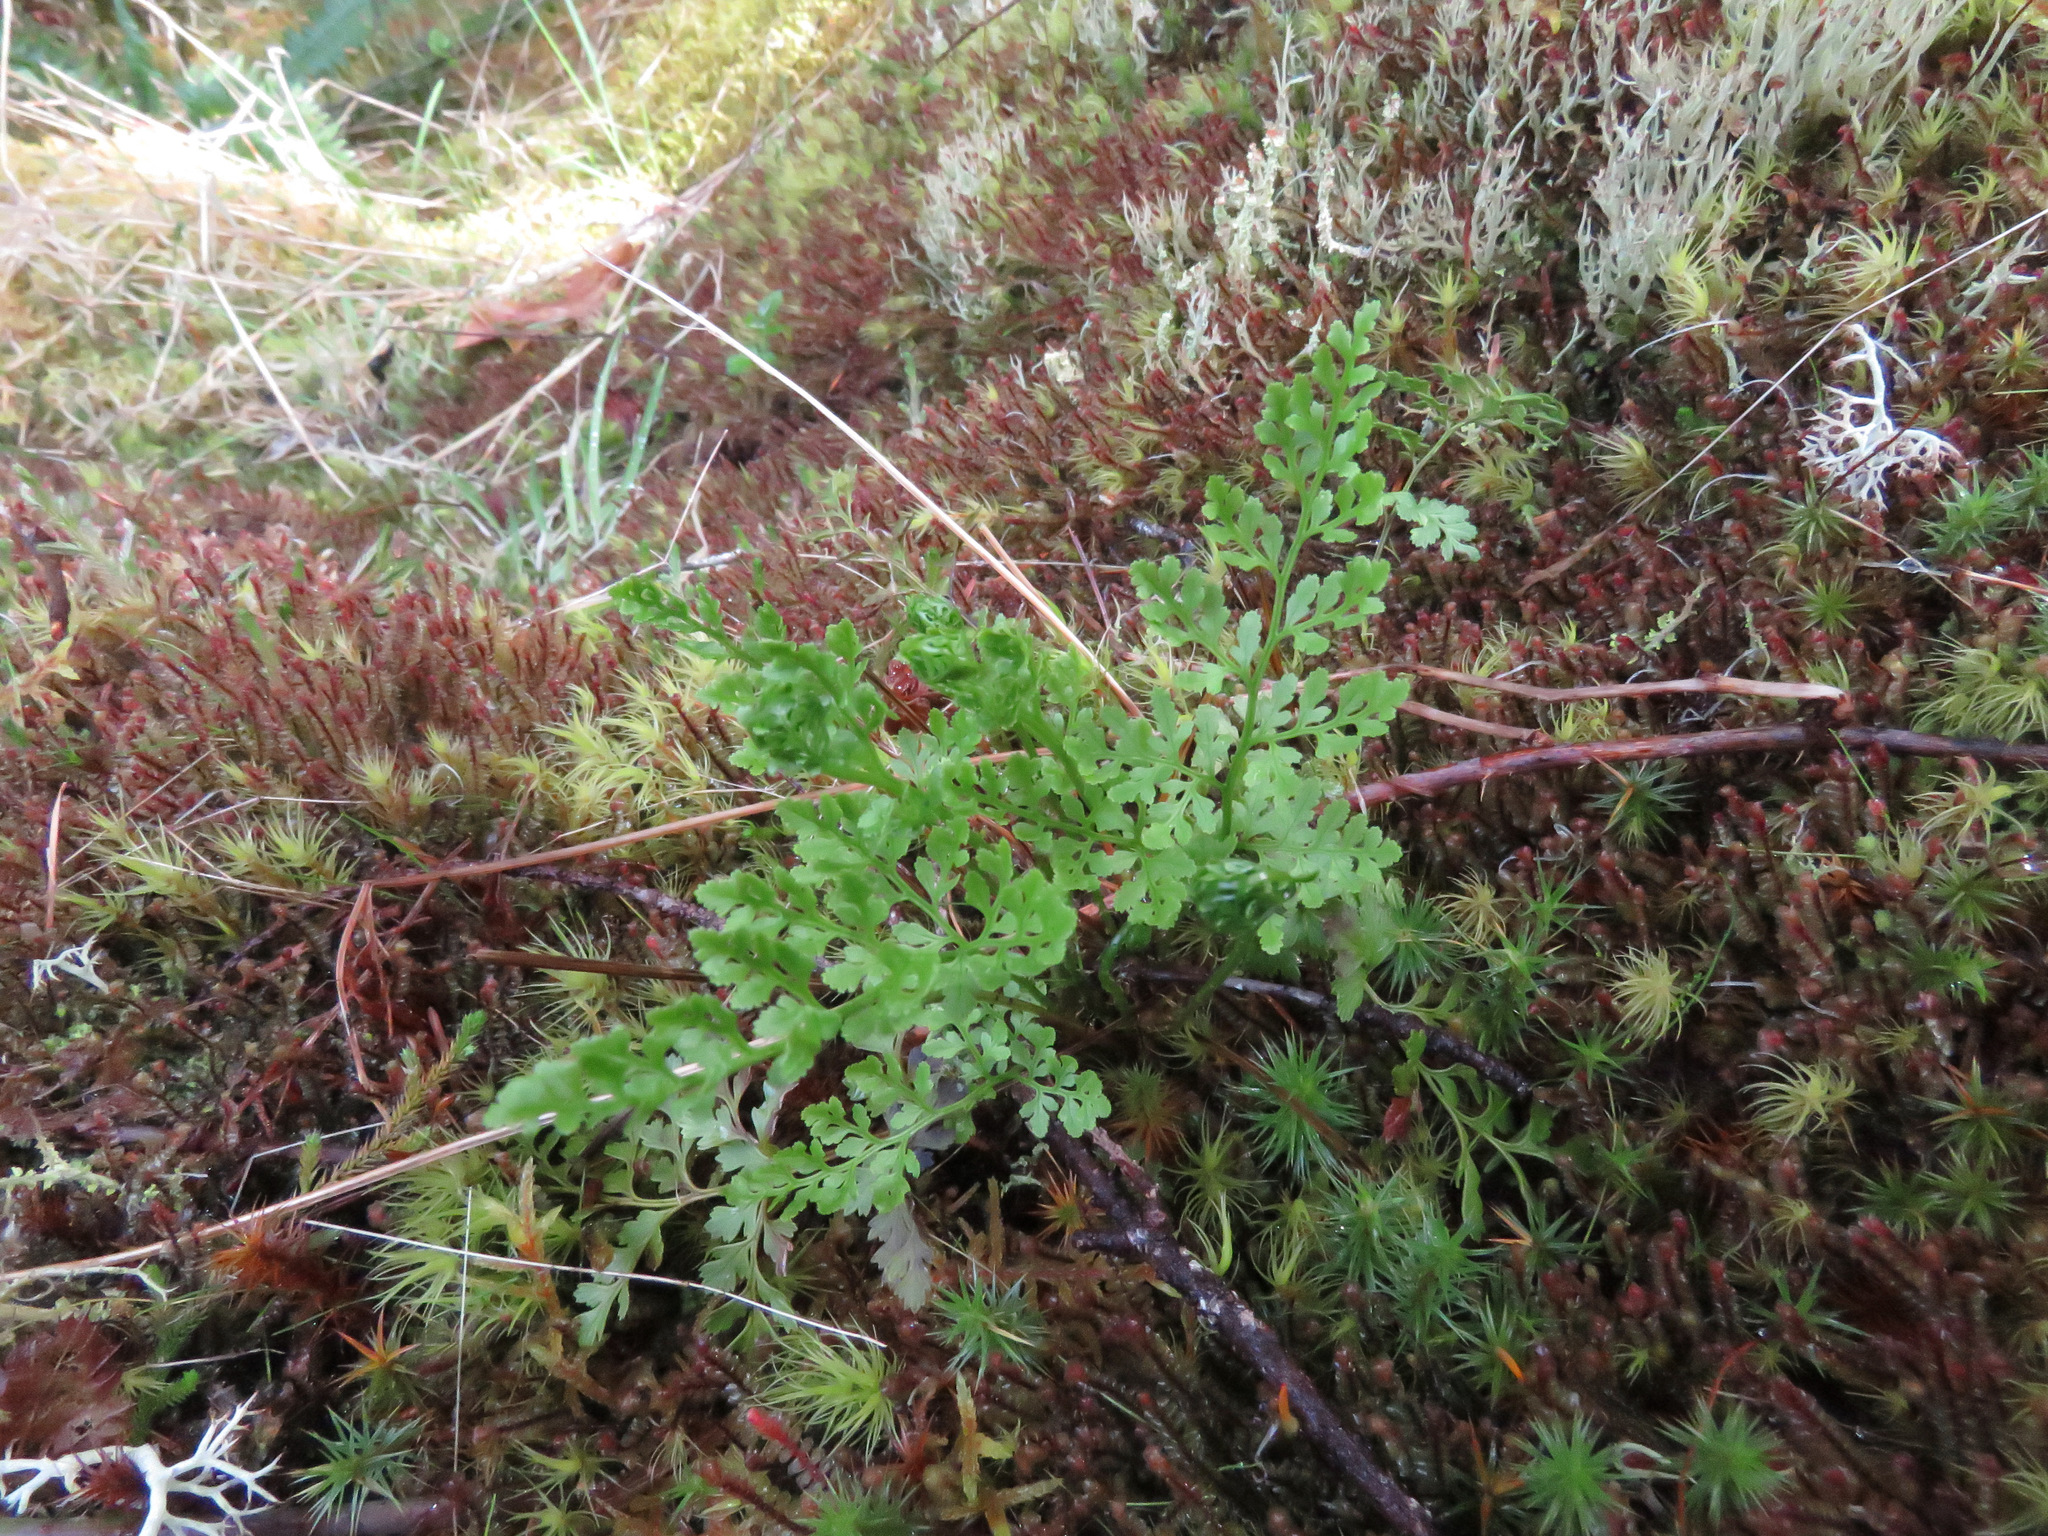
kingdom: Plantae
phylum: Tracheophyta
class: Polypodiopsida
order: Polypodiales
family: Pteridaceae
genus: Cryptogramma
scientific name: Cryptogramma acrostichoides
